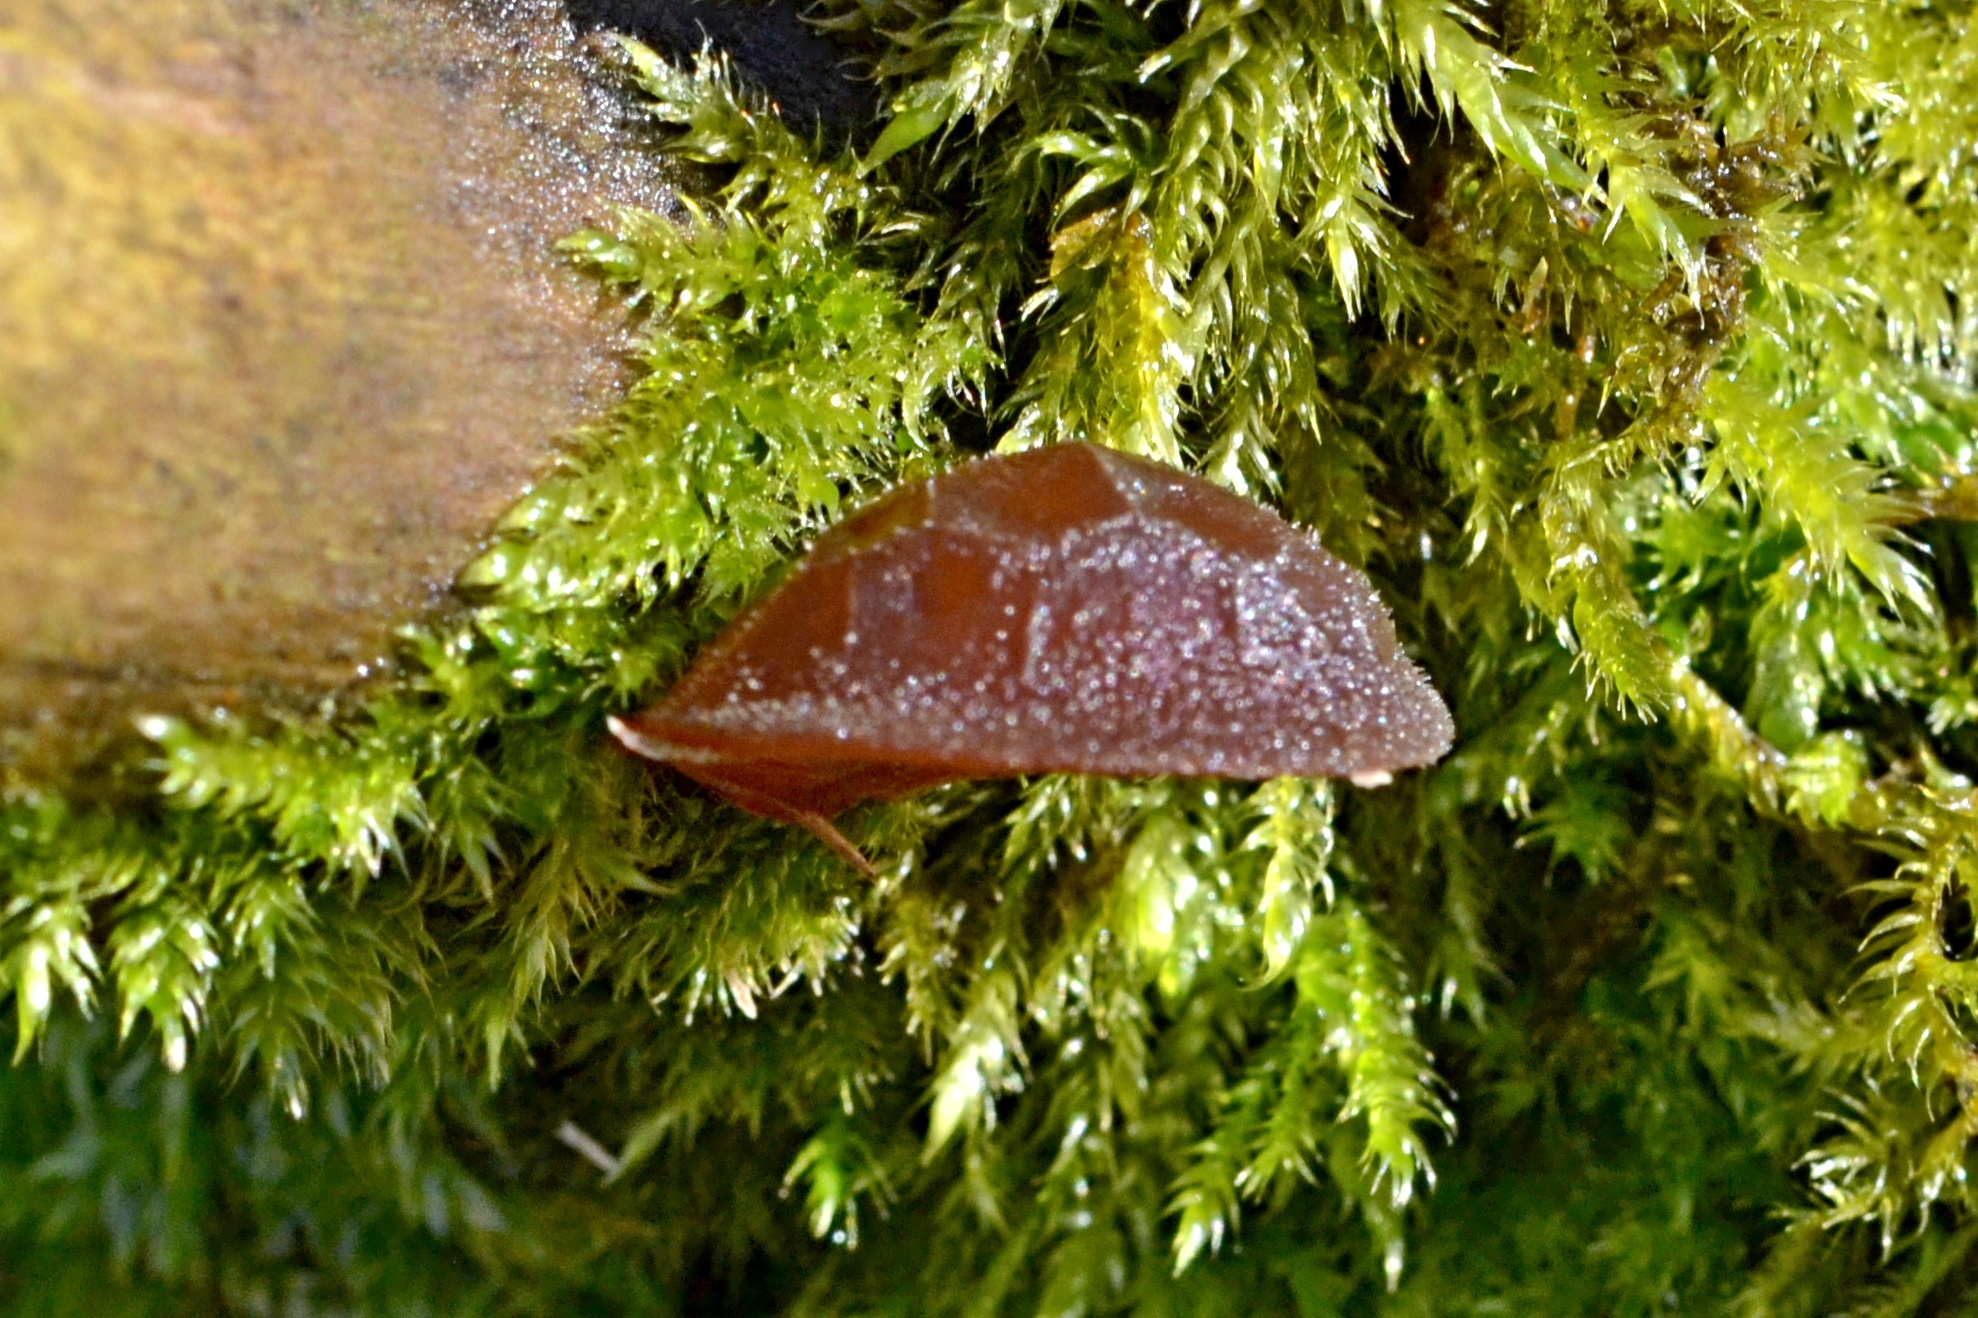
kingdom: Fungi
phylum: Basidiomycota
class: Agaricomycetes
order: Auriculariales
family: Auriculariaceae
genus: Auricularia
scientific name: Auricularia auricula-judae
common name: Jelly ear
